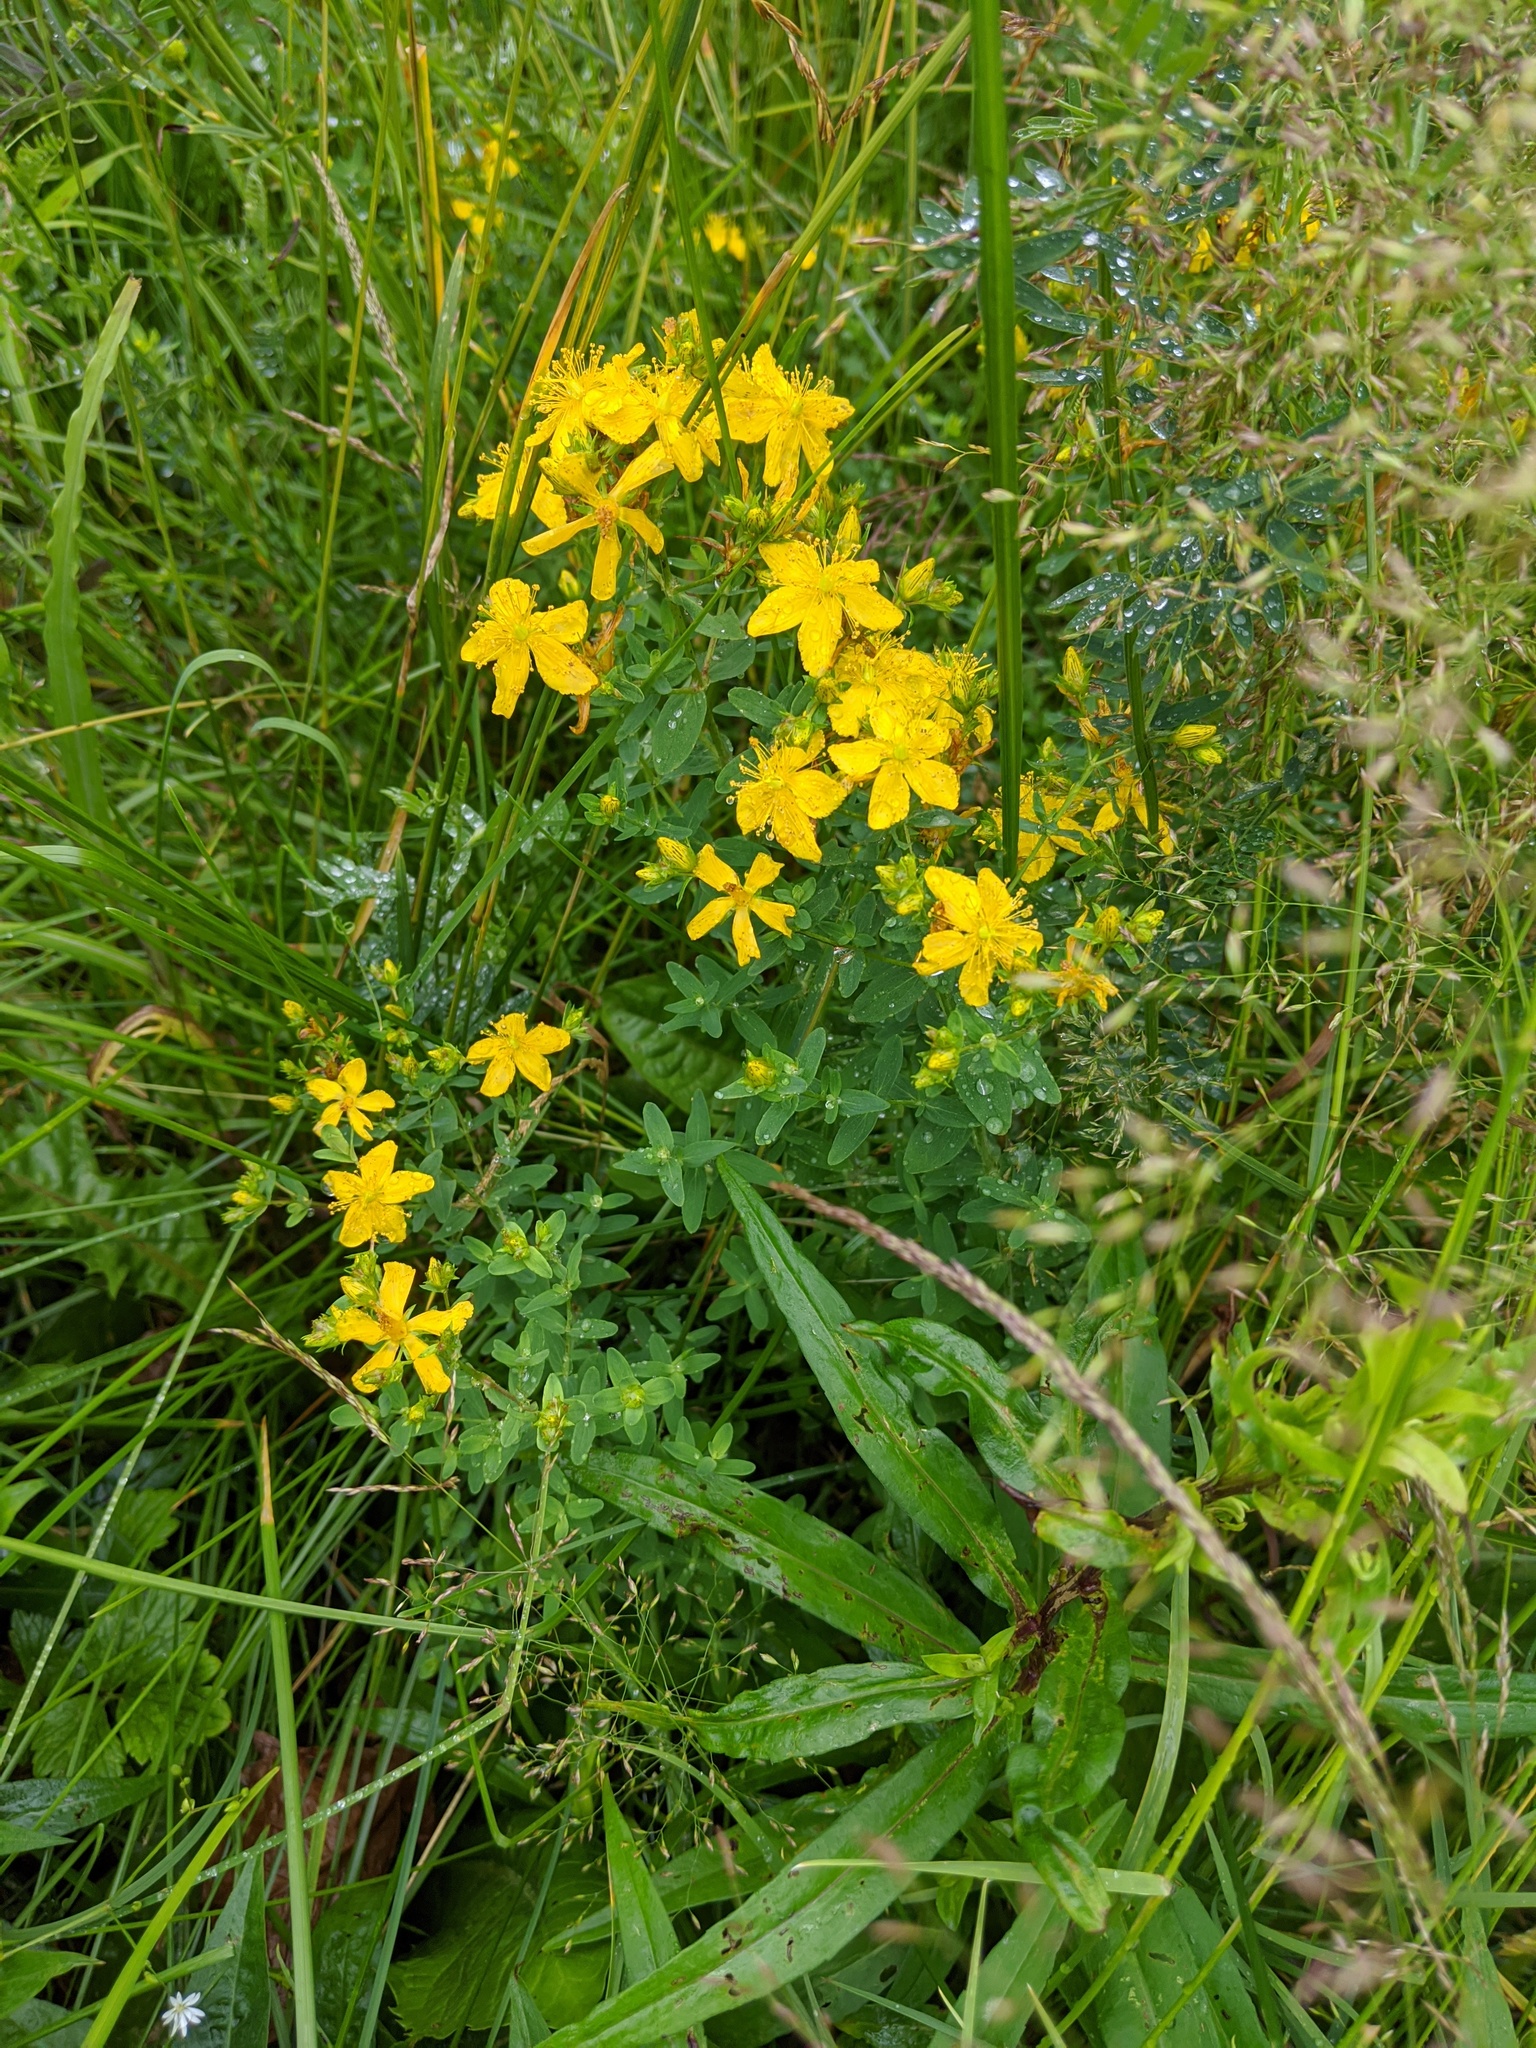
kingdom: Plantae
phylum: Tracheophyta
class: Magnoliopsida
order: Malpighiales
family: Hypericaceae
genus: Hypericum
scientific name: Hypericum perforatum
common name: Common st. johnswort
